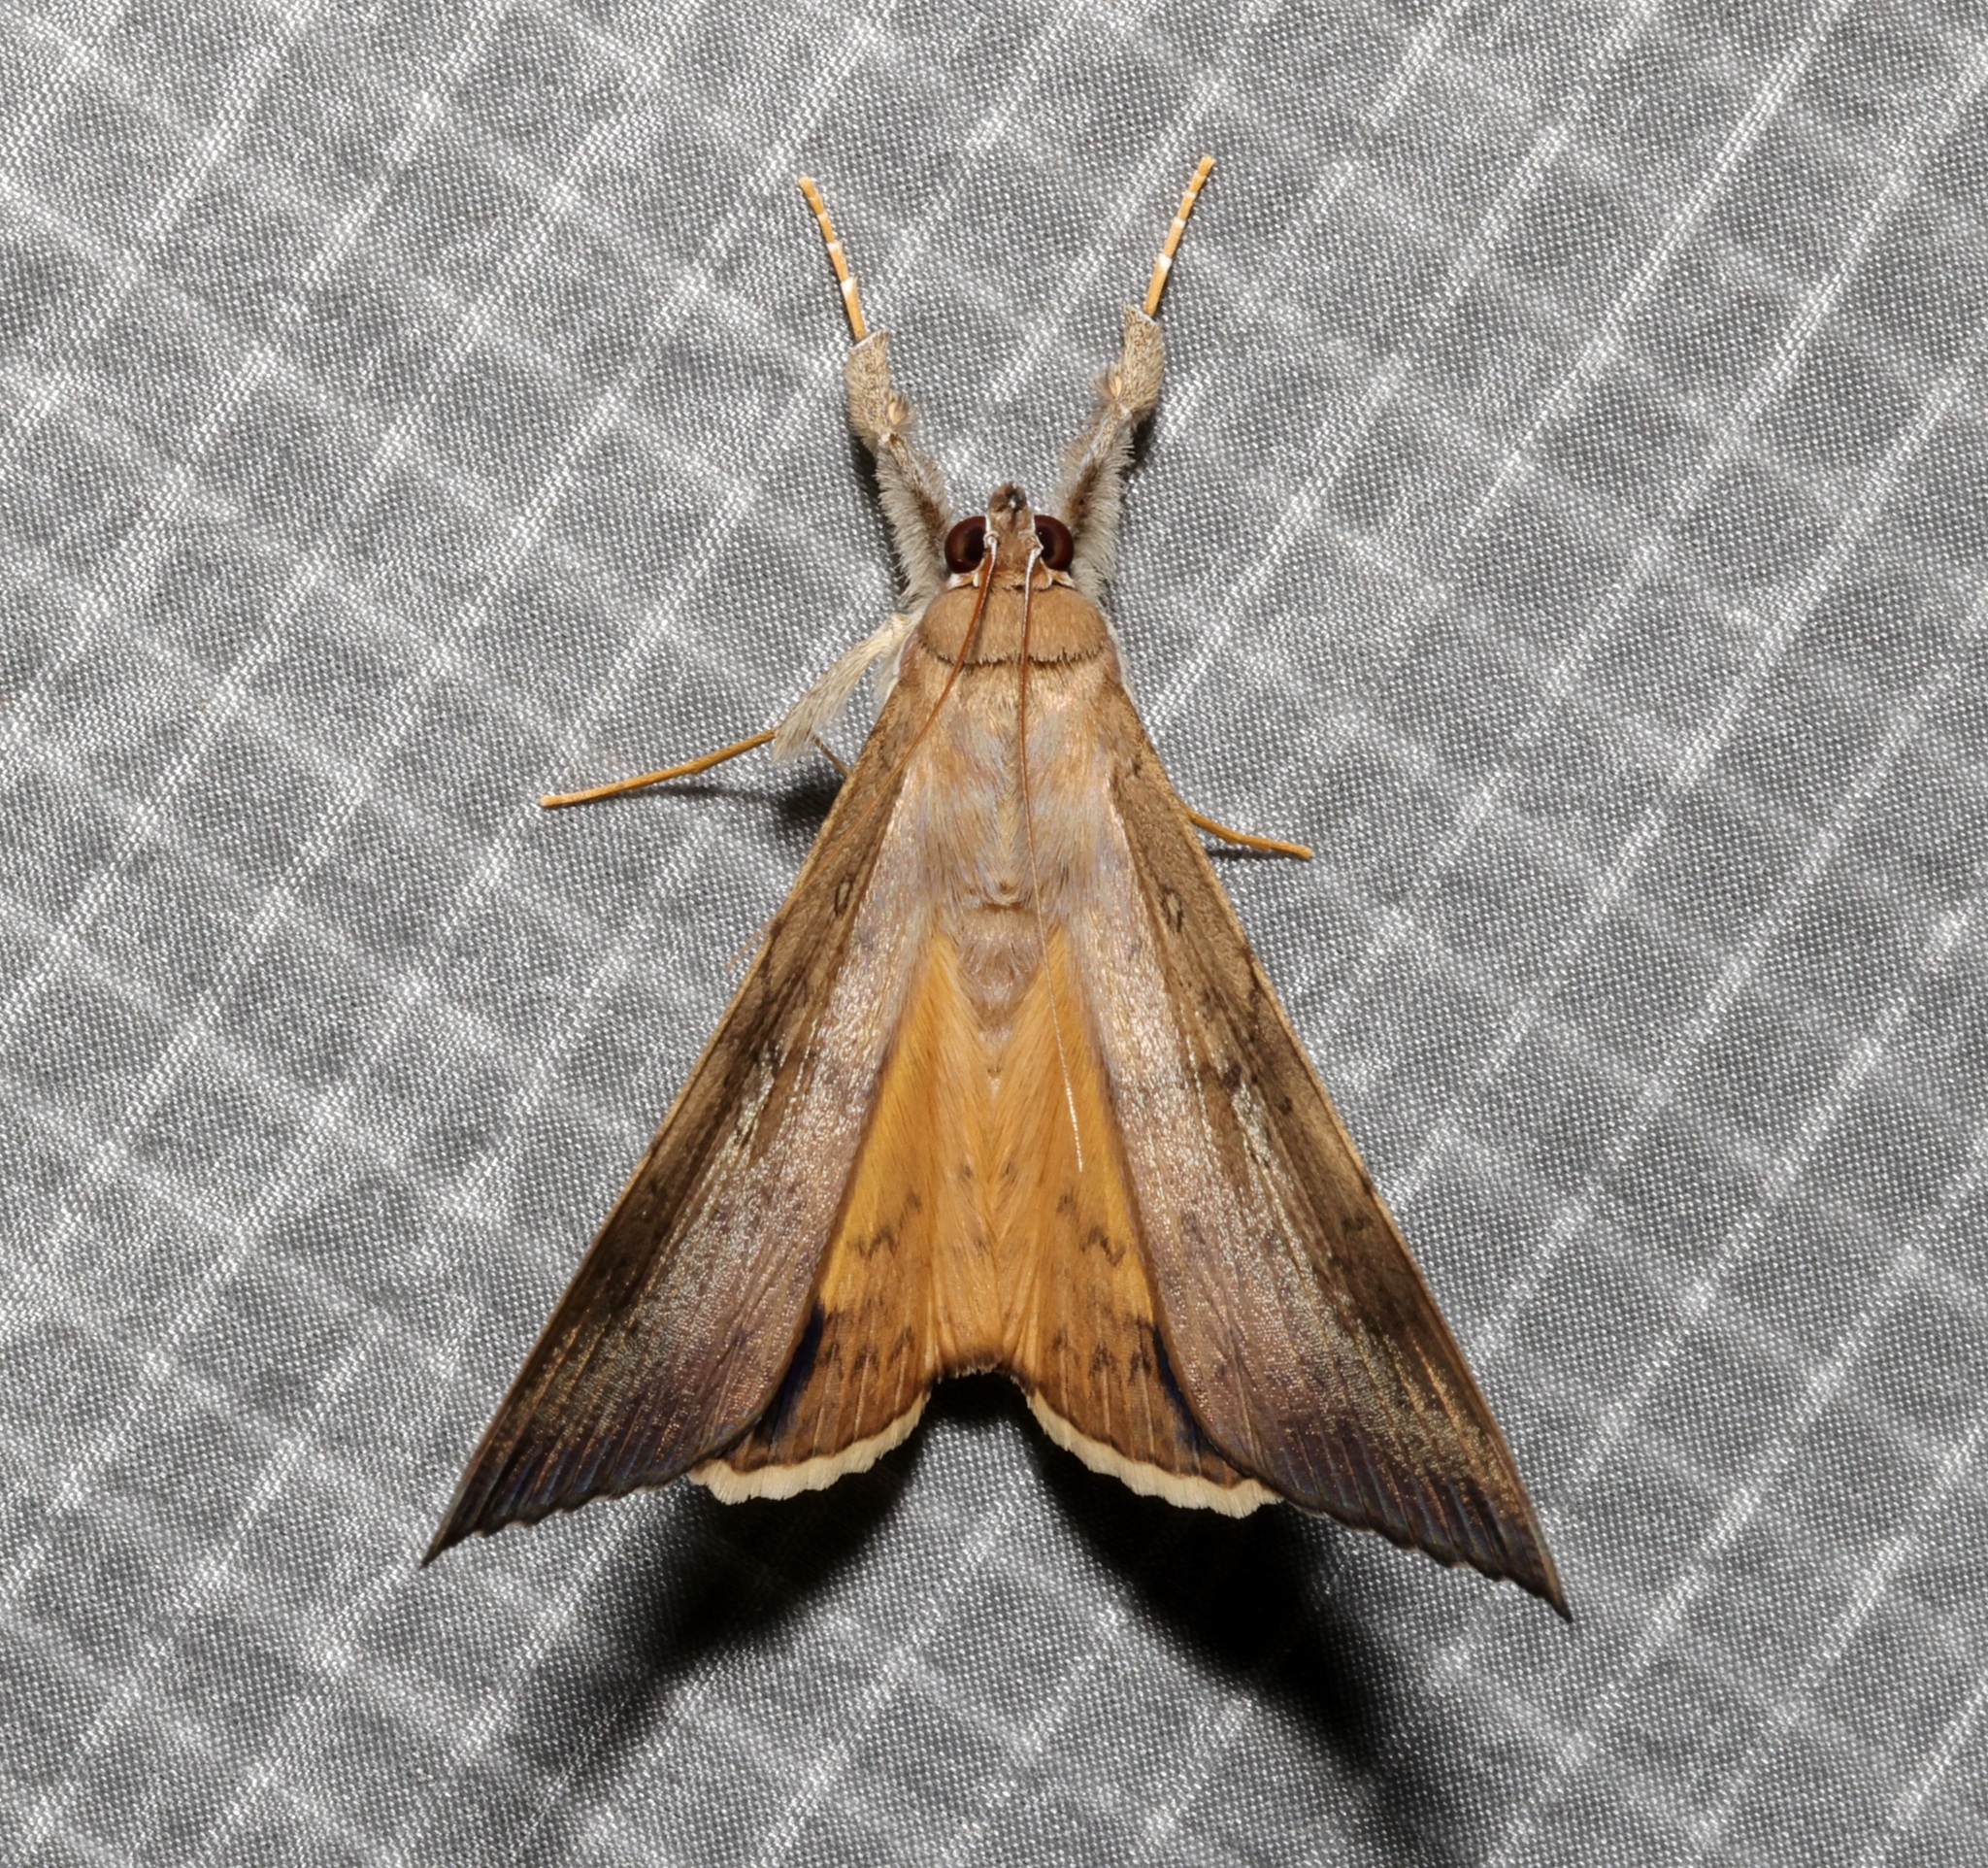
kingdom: Animalia
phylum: Arthropoda
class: Insecta
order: Lepidoptera
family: Erebidae
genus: Oxyodes
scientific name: Oxyodes scrobiculata
